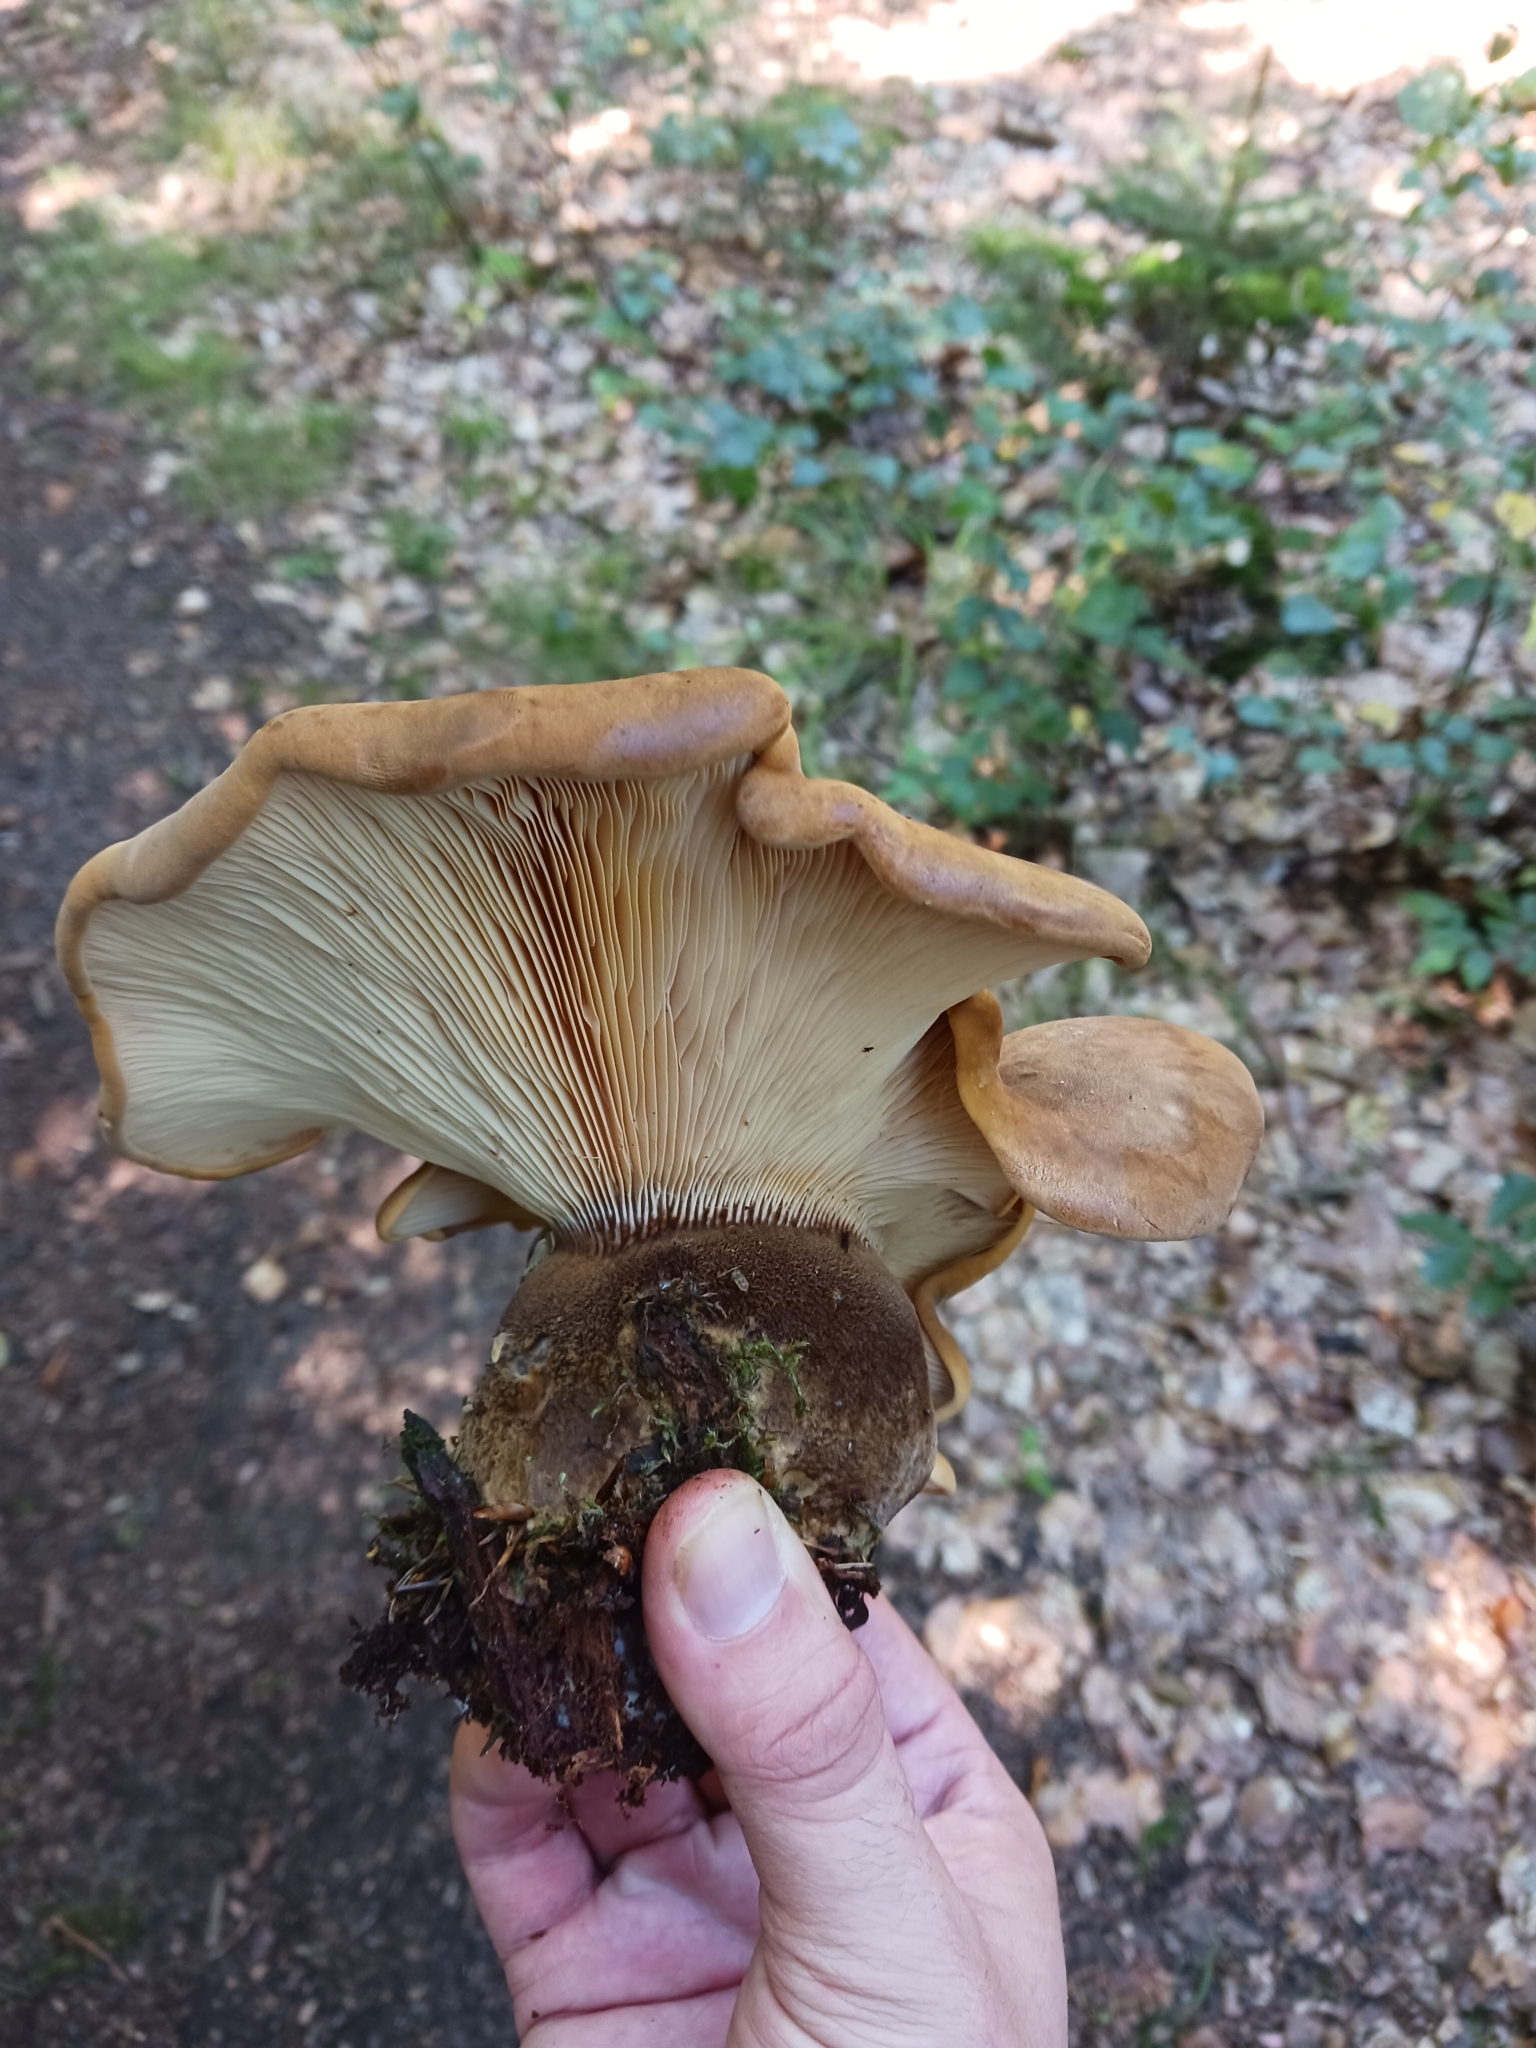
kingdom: Fungi
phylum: Basidiomycota
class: Agaricomycetes
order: Boletales
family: Tapinellaceae
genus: Tapinella
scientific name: Tapinella atrotomentosa
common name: Velvet rollrim
